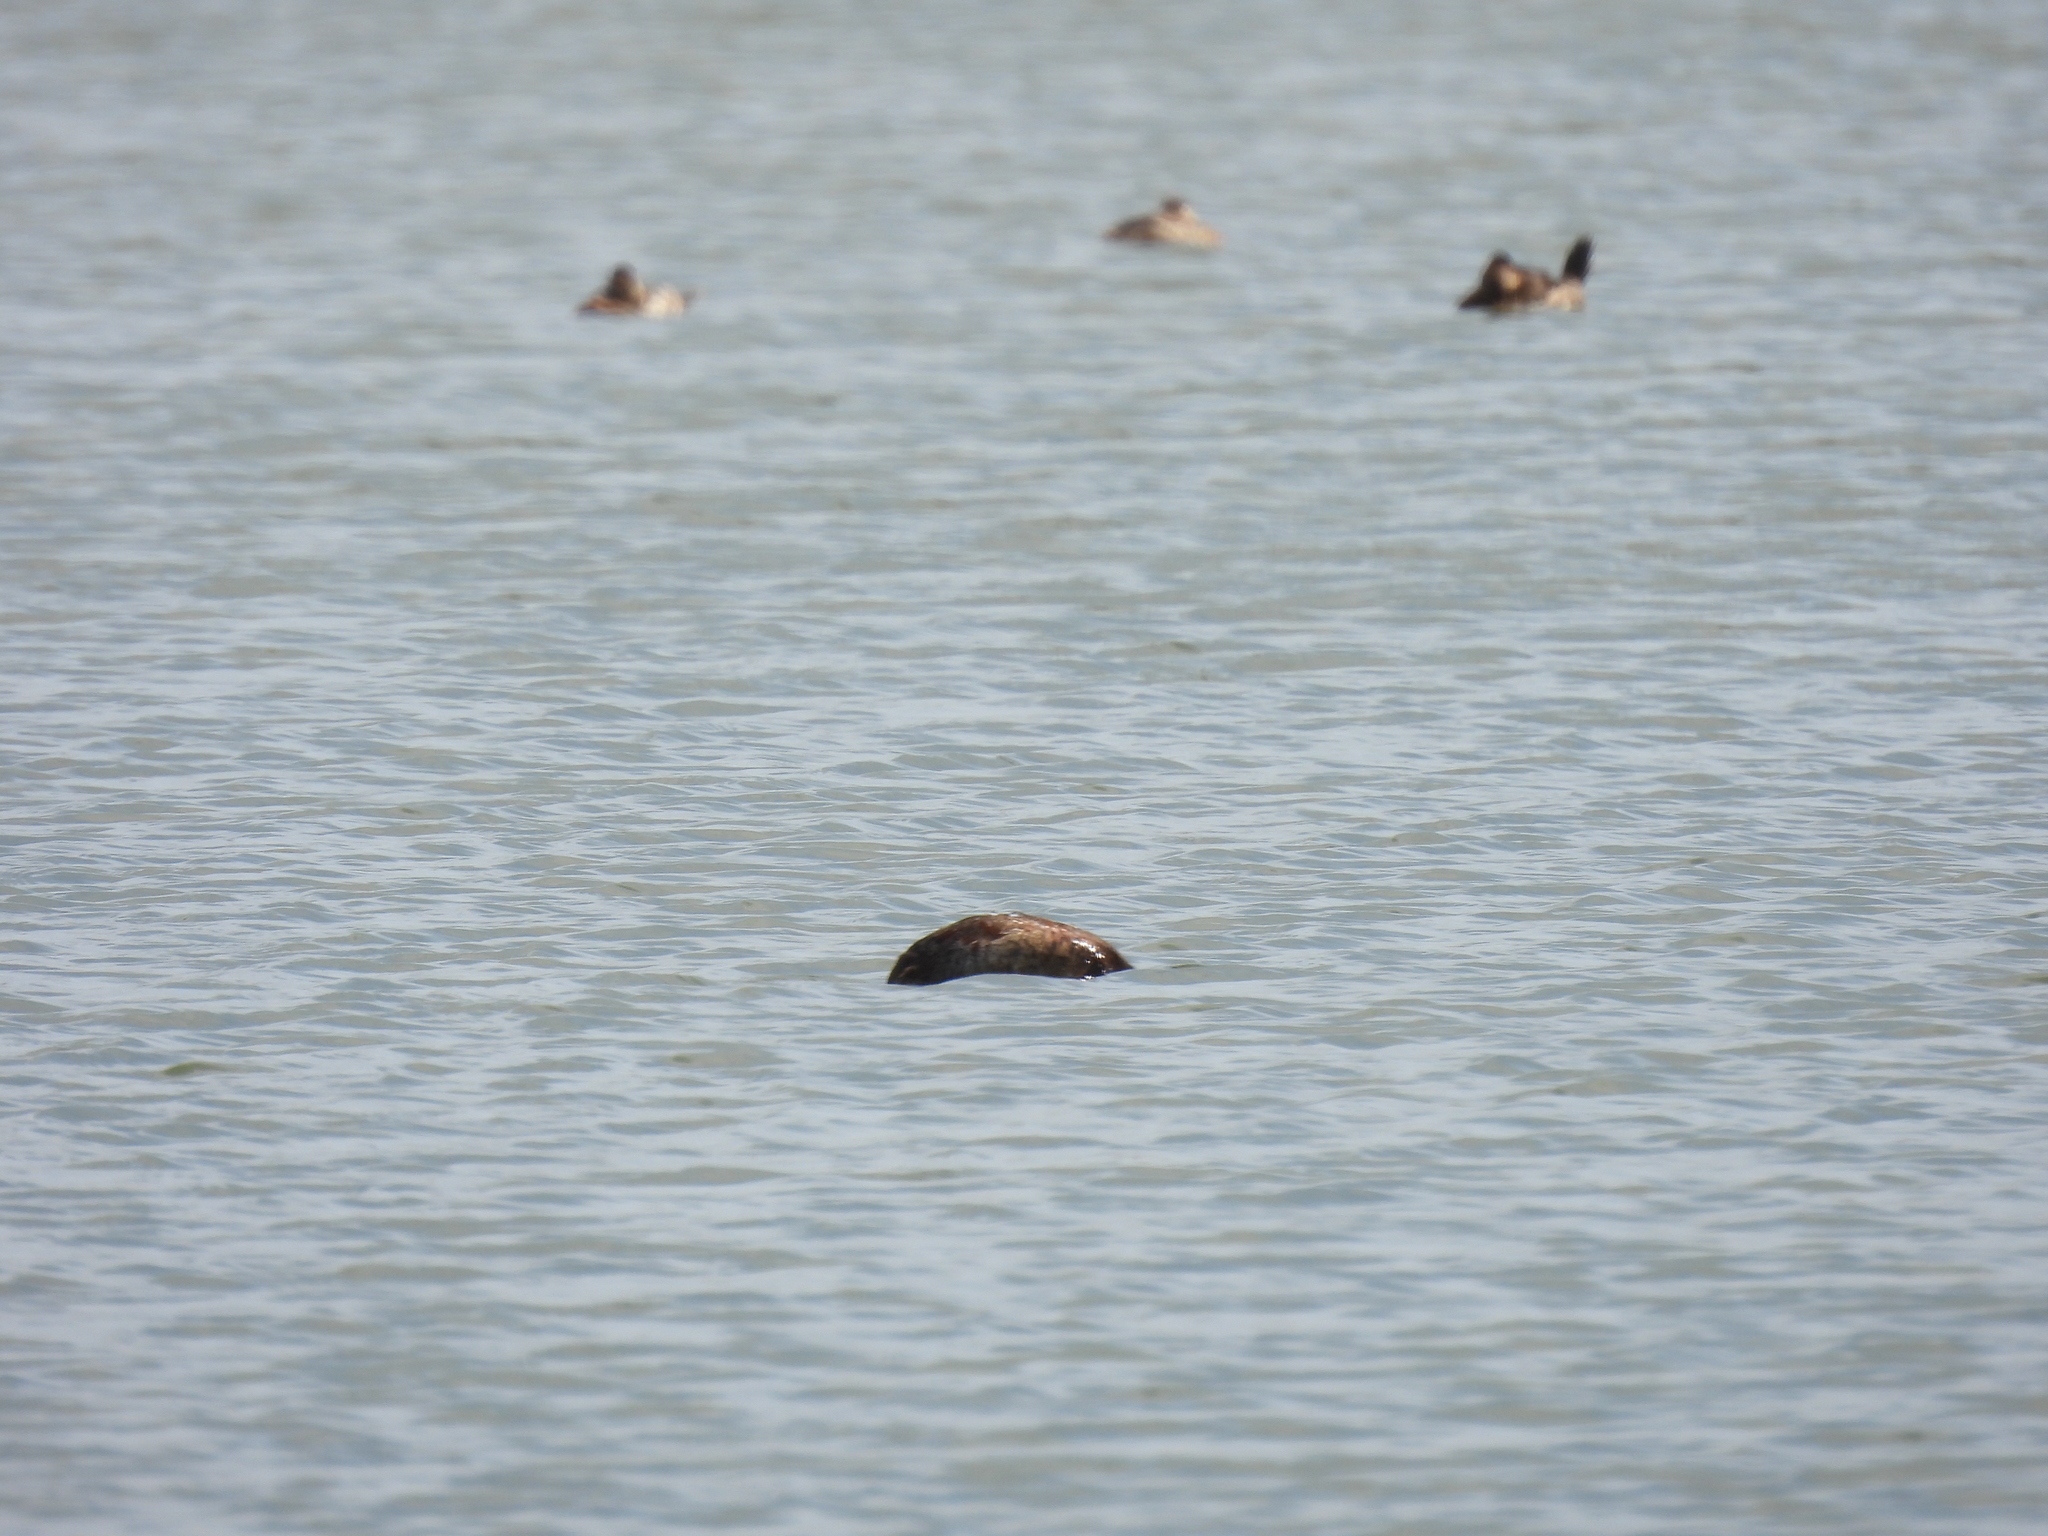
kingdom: Animalia
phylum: Chordata
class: Aves
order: Podicipediformes
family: Podicipedidae
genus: Podilymbus
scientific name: Podilymbus podiceps
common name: Pied-billed grebe
